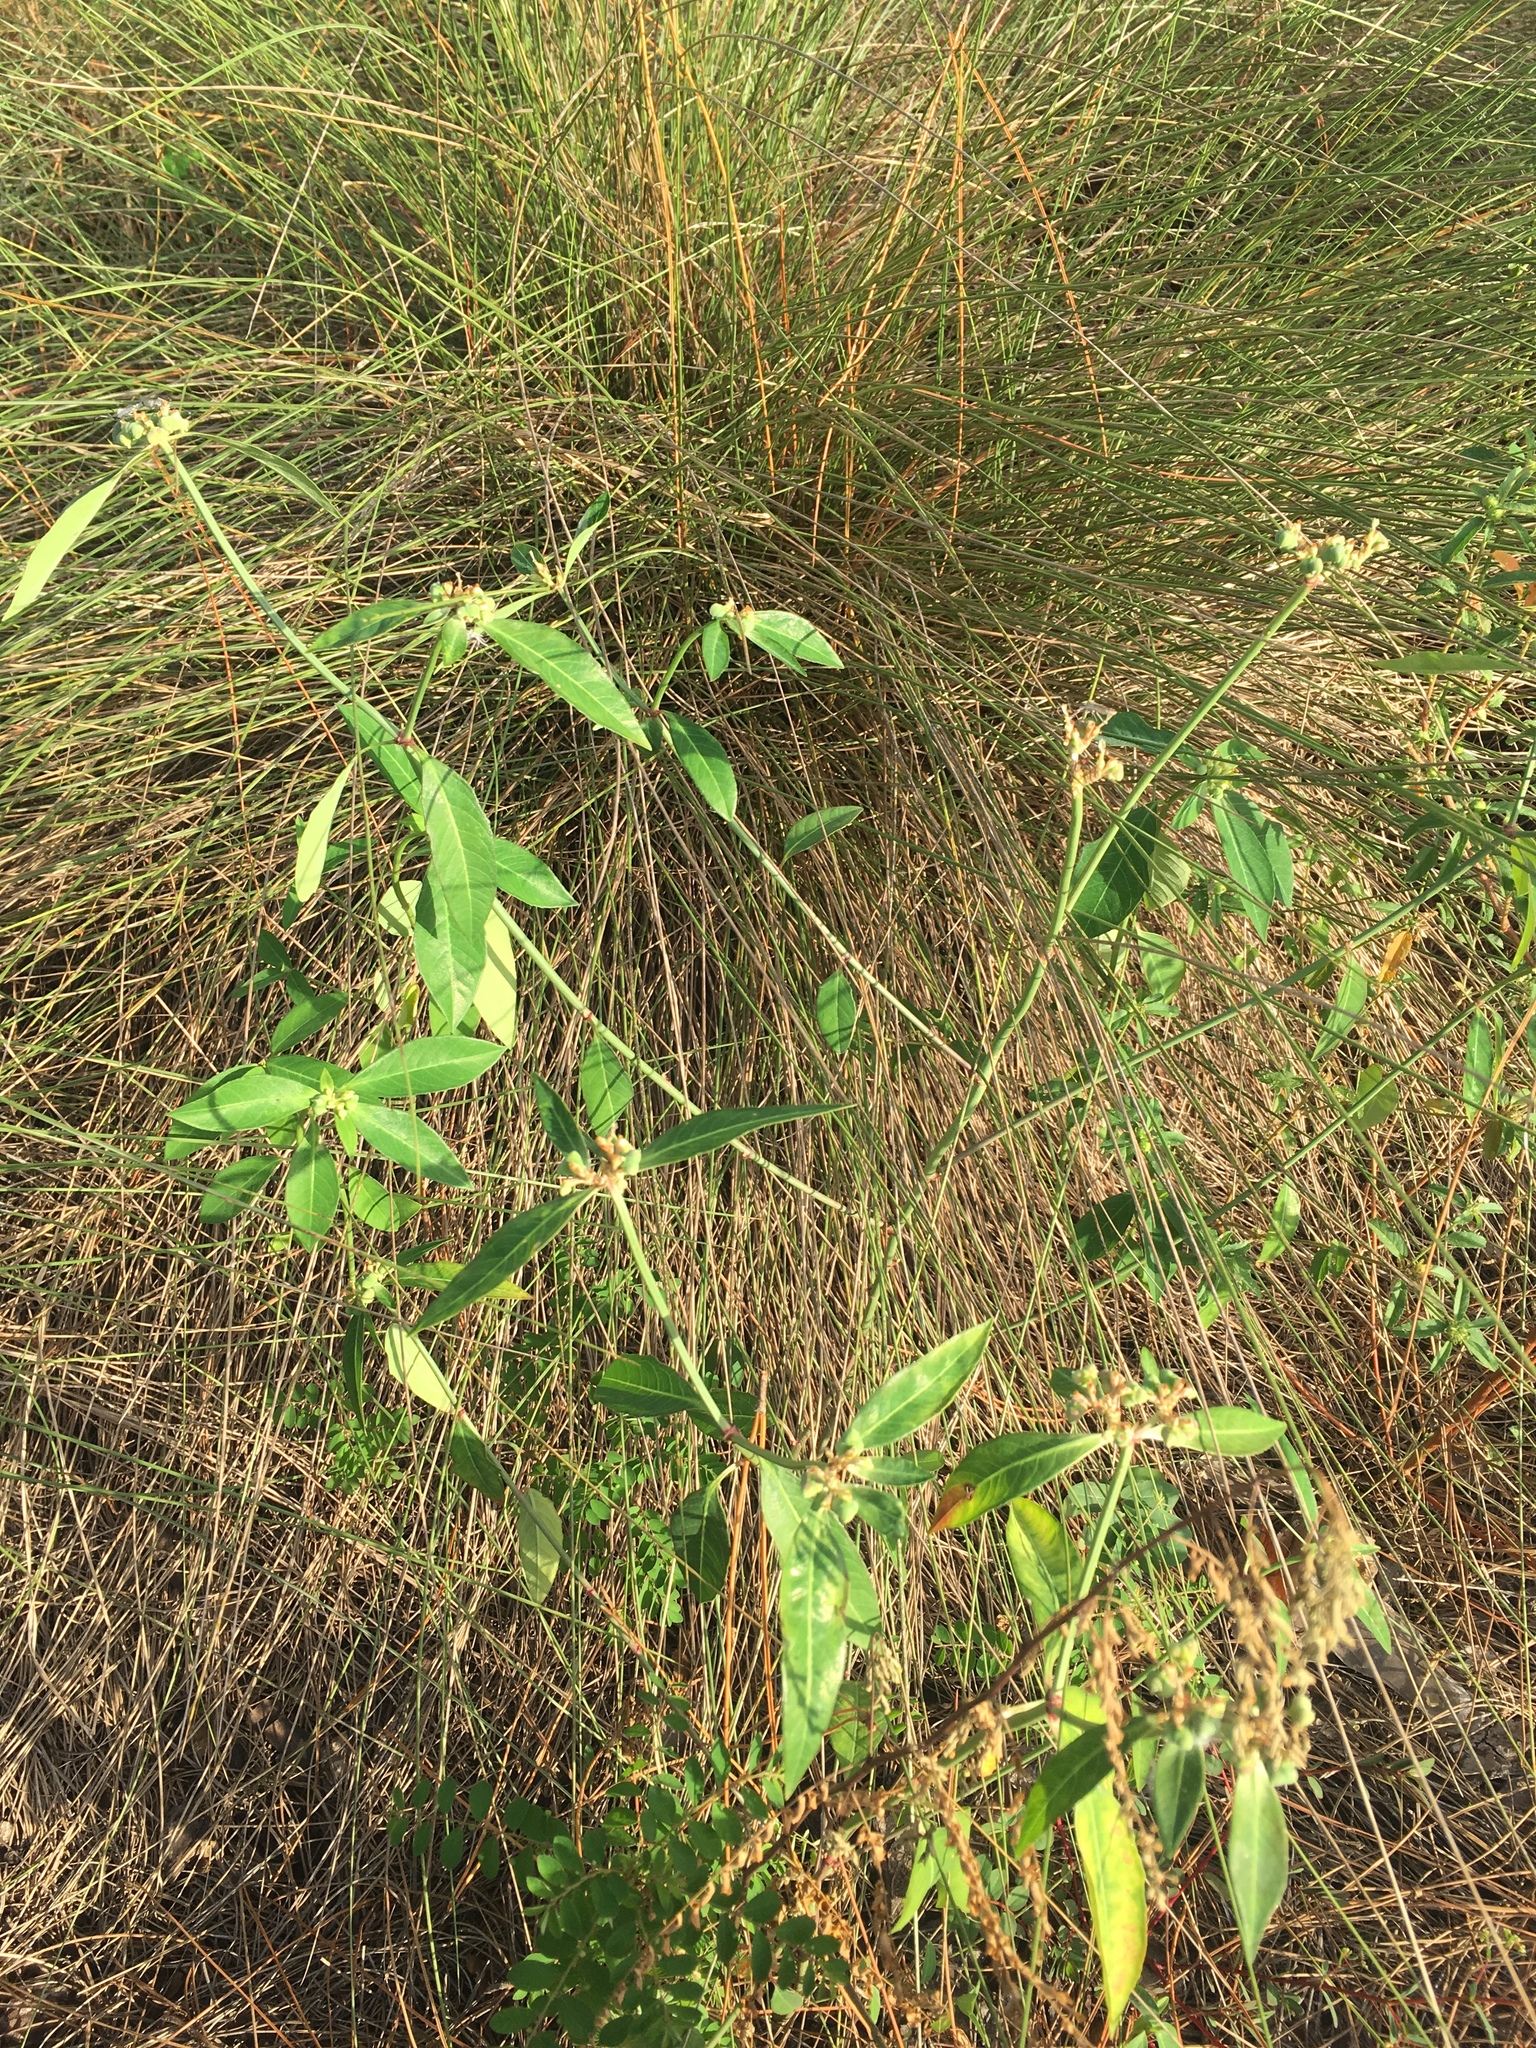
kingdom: Plantae
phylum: Tracheophyta
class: Magnoliopsida
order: Malpighiales
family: Euphorbiaceae
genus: Euphorbia
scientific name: Euphorbia heterophylla
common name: Mexican fireplant
